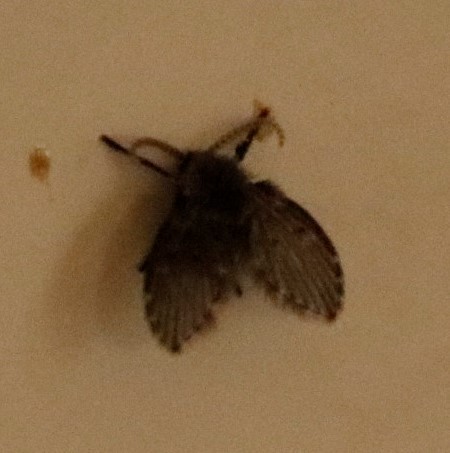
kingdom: Animalia
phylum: Arthropoda
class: Insecta
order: Diptera
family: Psychodidae
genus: Clogmia
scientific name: Clogmia albipunctatus
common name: White-spotted moth fly
